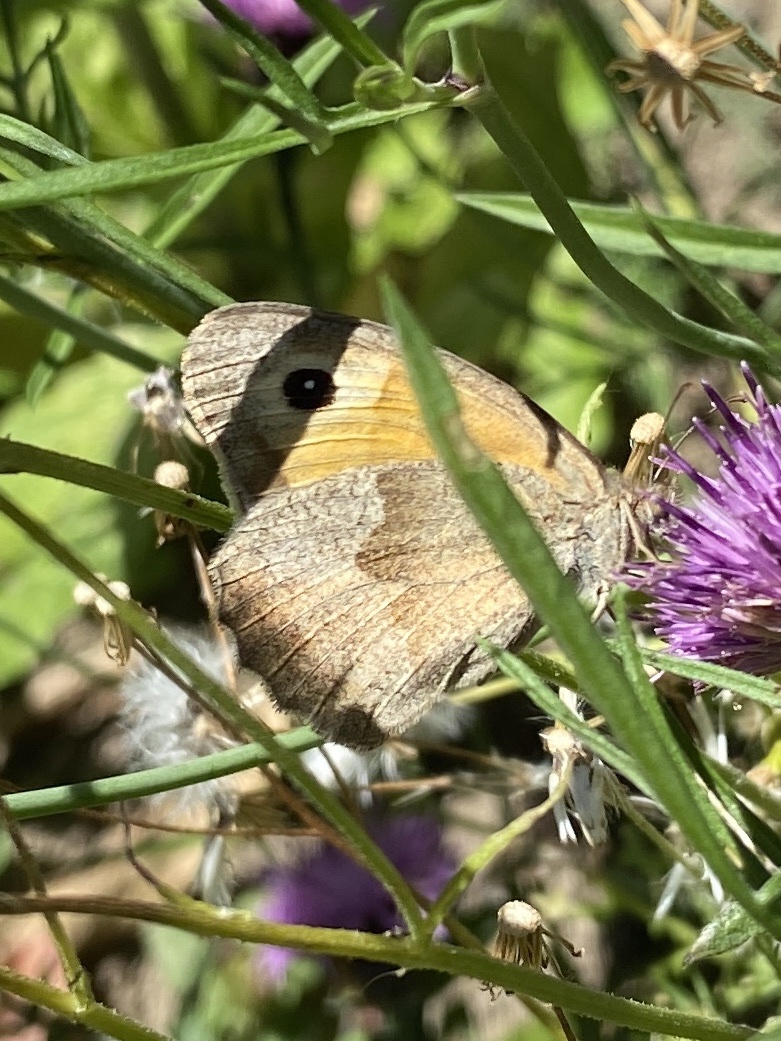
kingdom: Animalia
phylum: Arthropoda
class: Insecta
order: Lepidoptera
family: Nymphalidae
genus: Maniola
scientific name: Maniola jurtina
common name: Meadow brown
